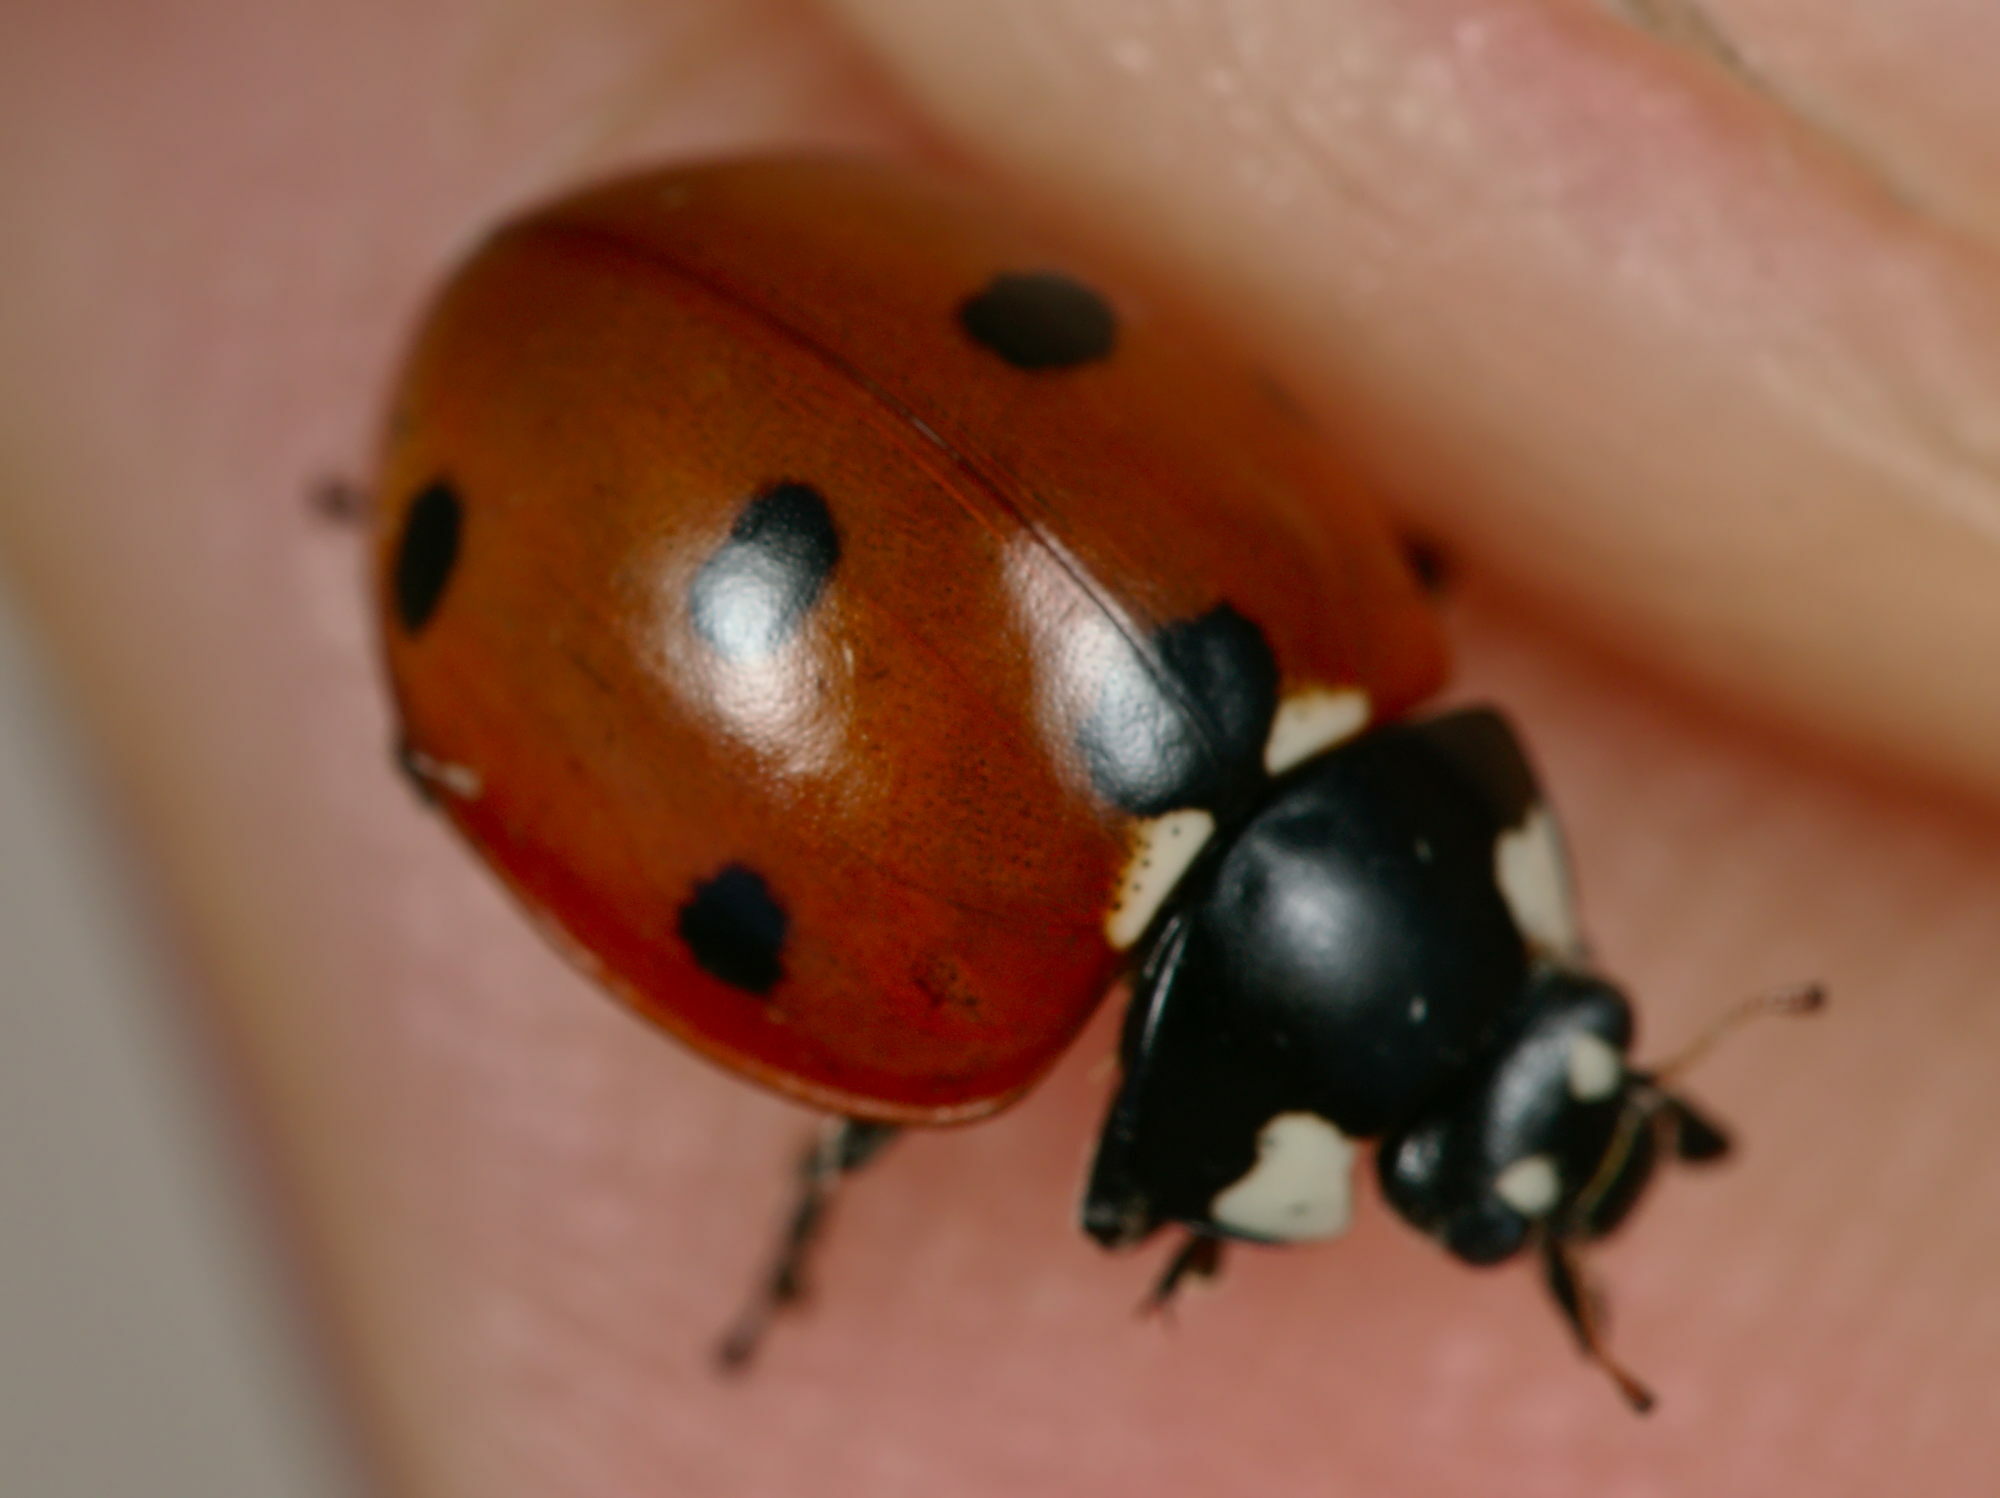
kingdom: Animalia
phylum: Arthropoda
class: Insecta
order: Coleoptera
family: Coccinellidae
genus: Coccinella
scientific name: Coccinella septempunctata
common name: Sevenspotted lady beetle
